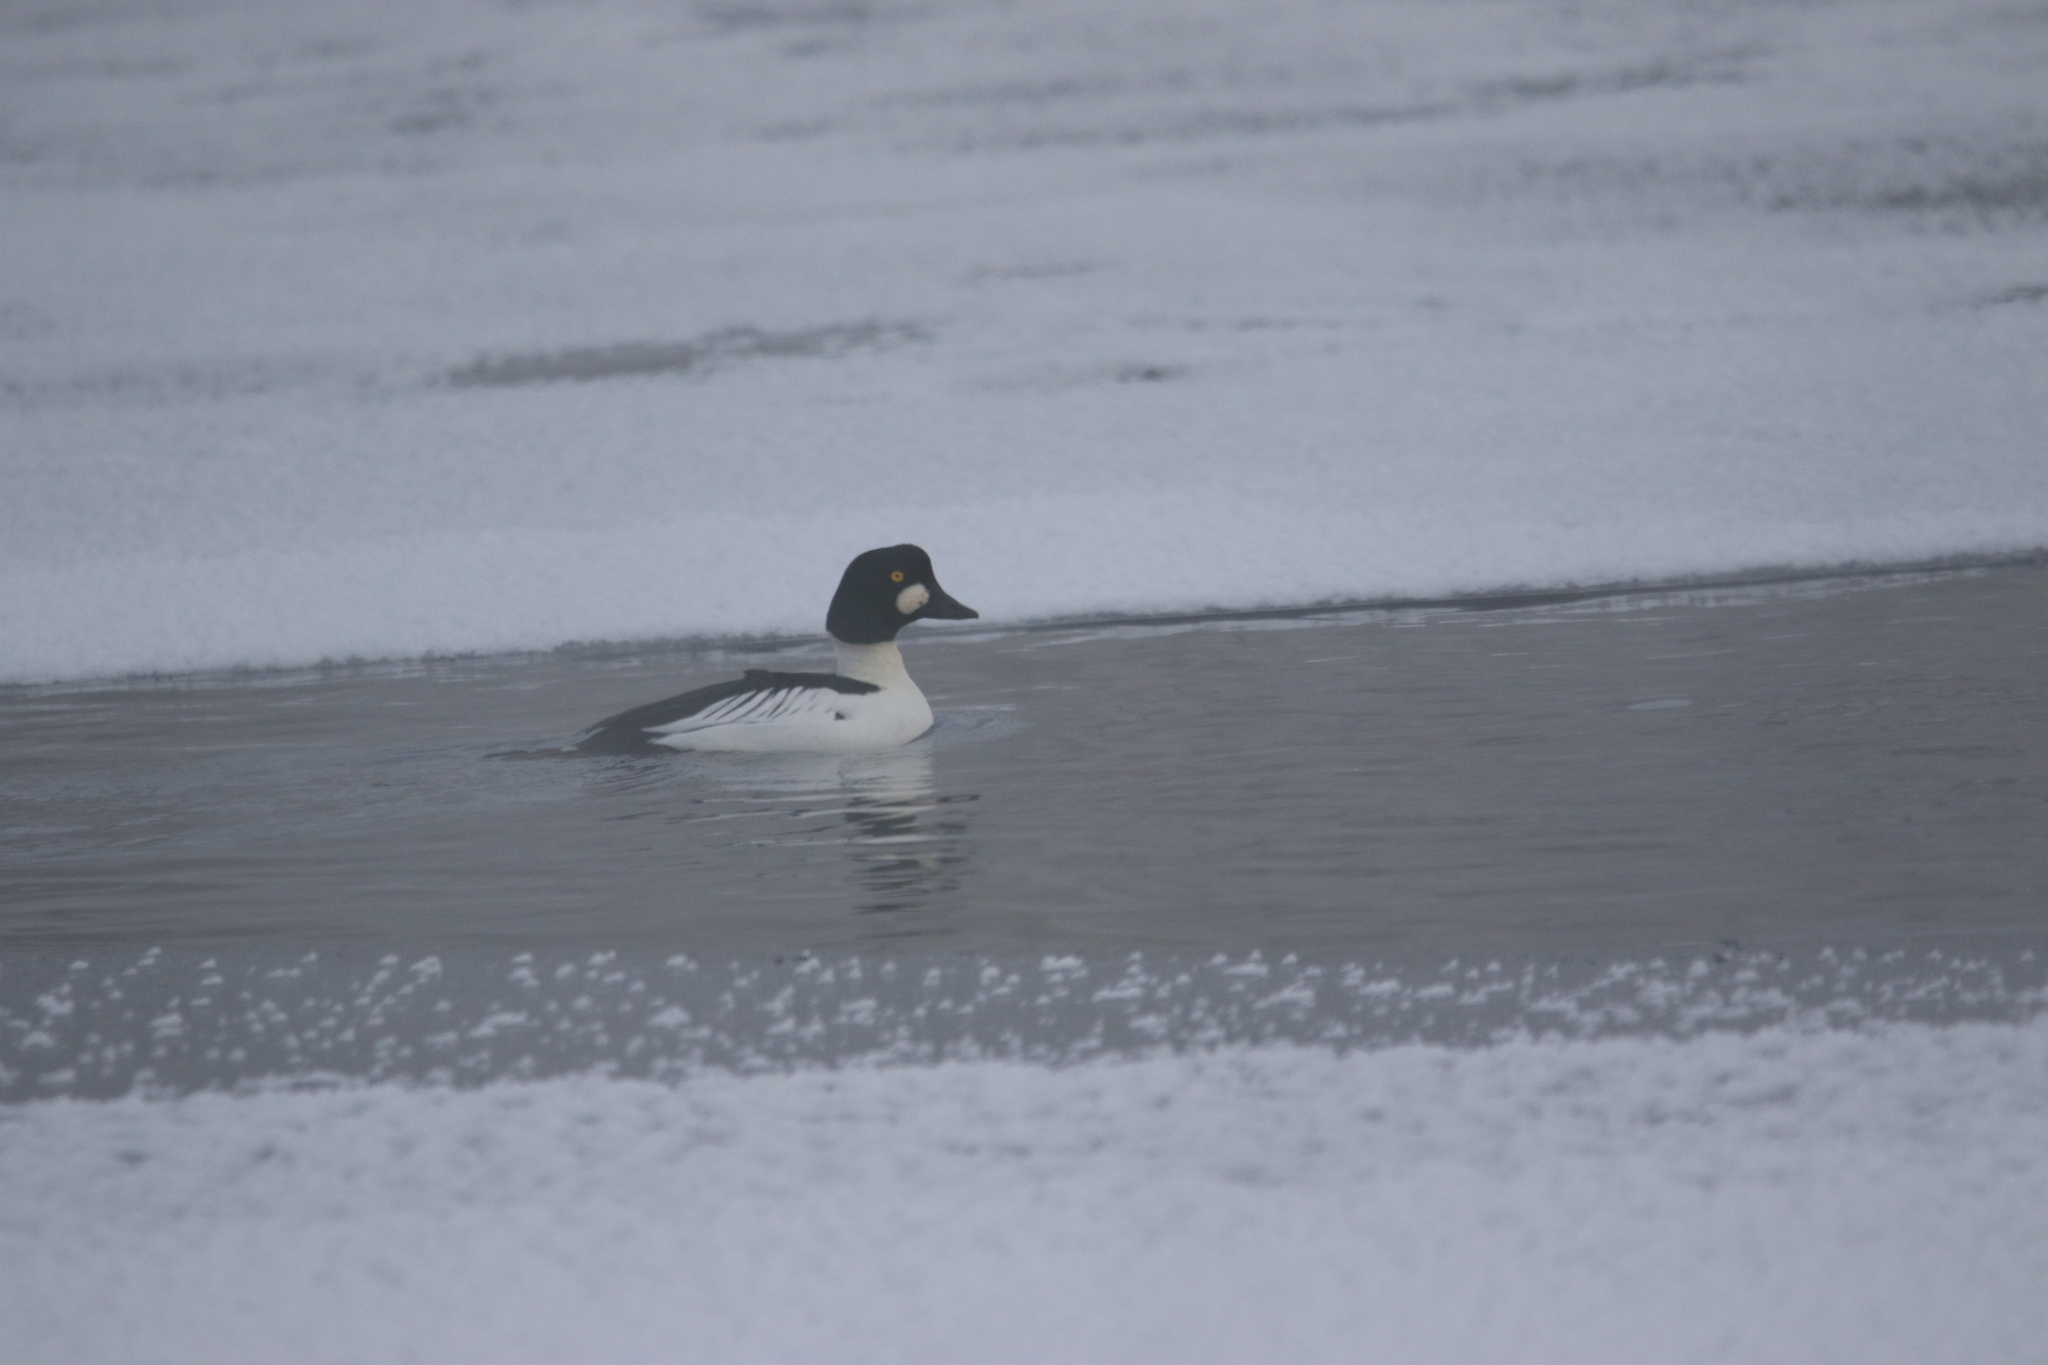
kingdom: Animalia
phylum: Chordata
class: Aves
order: Anseriformes
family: Anatidae
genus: Bucephala
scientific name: Bucephala clangula
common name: Common goldeneye
